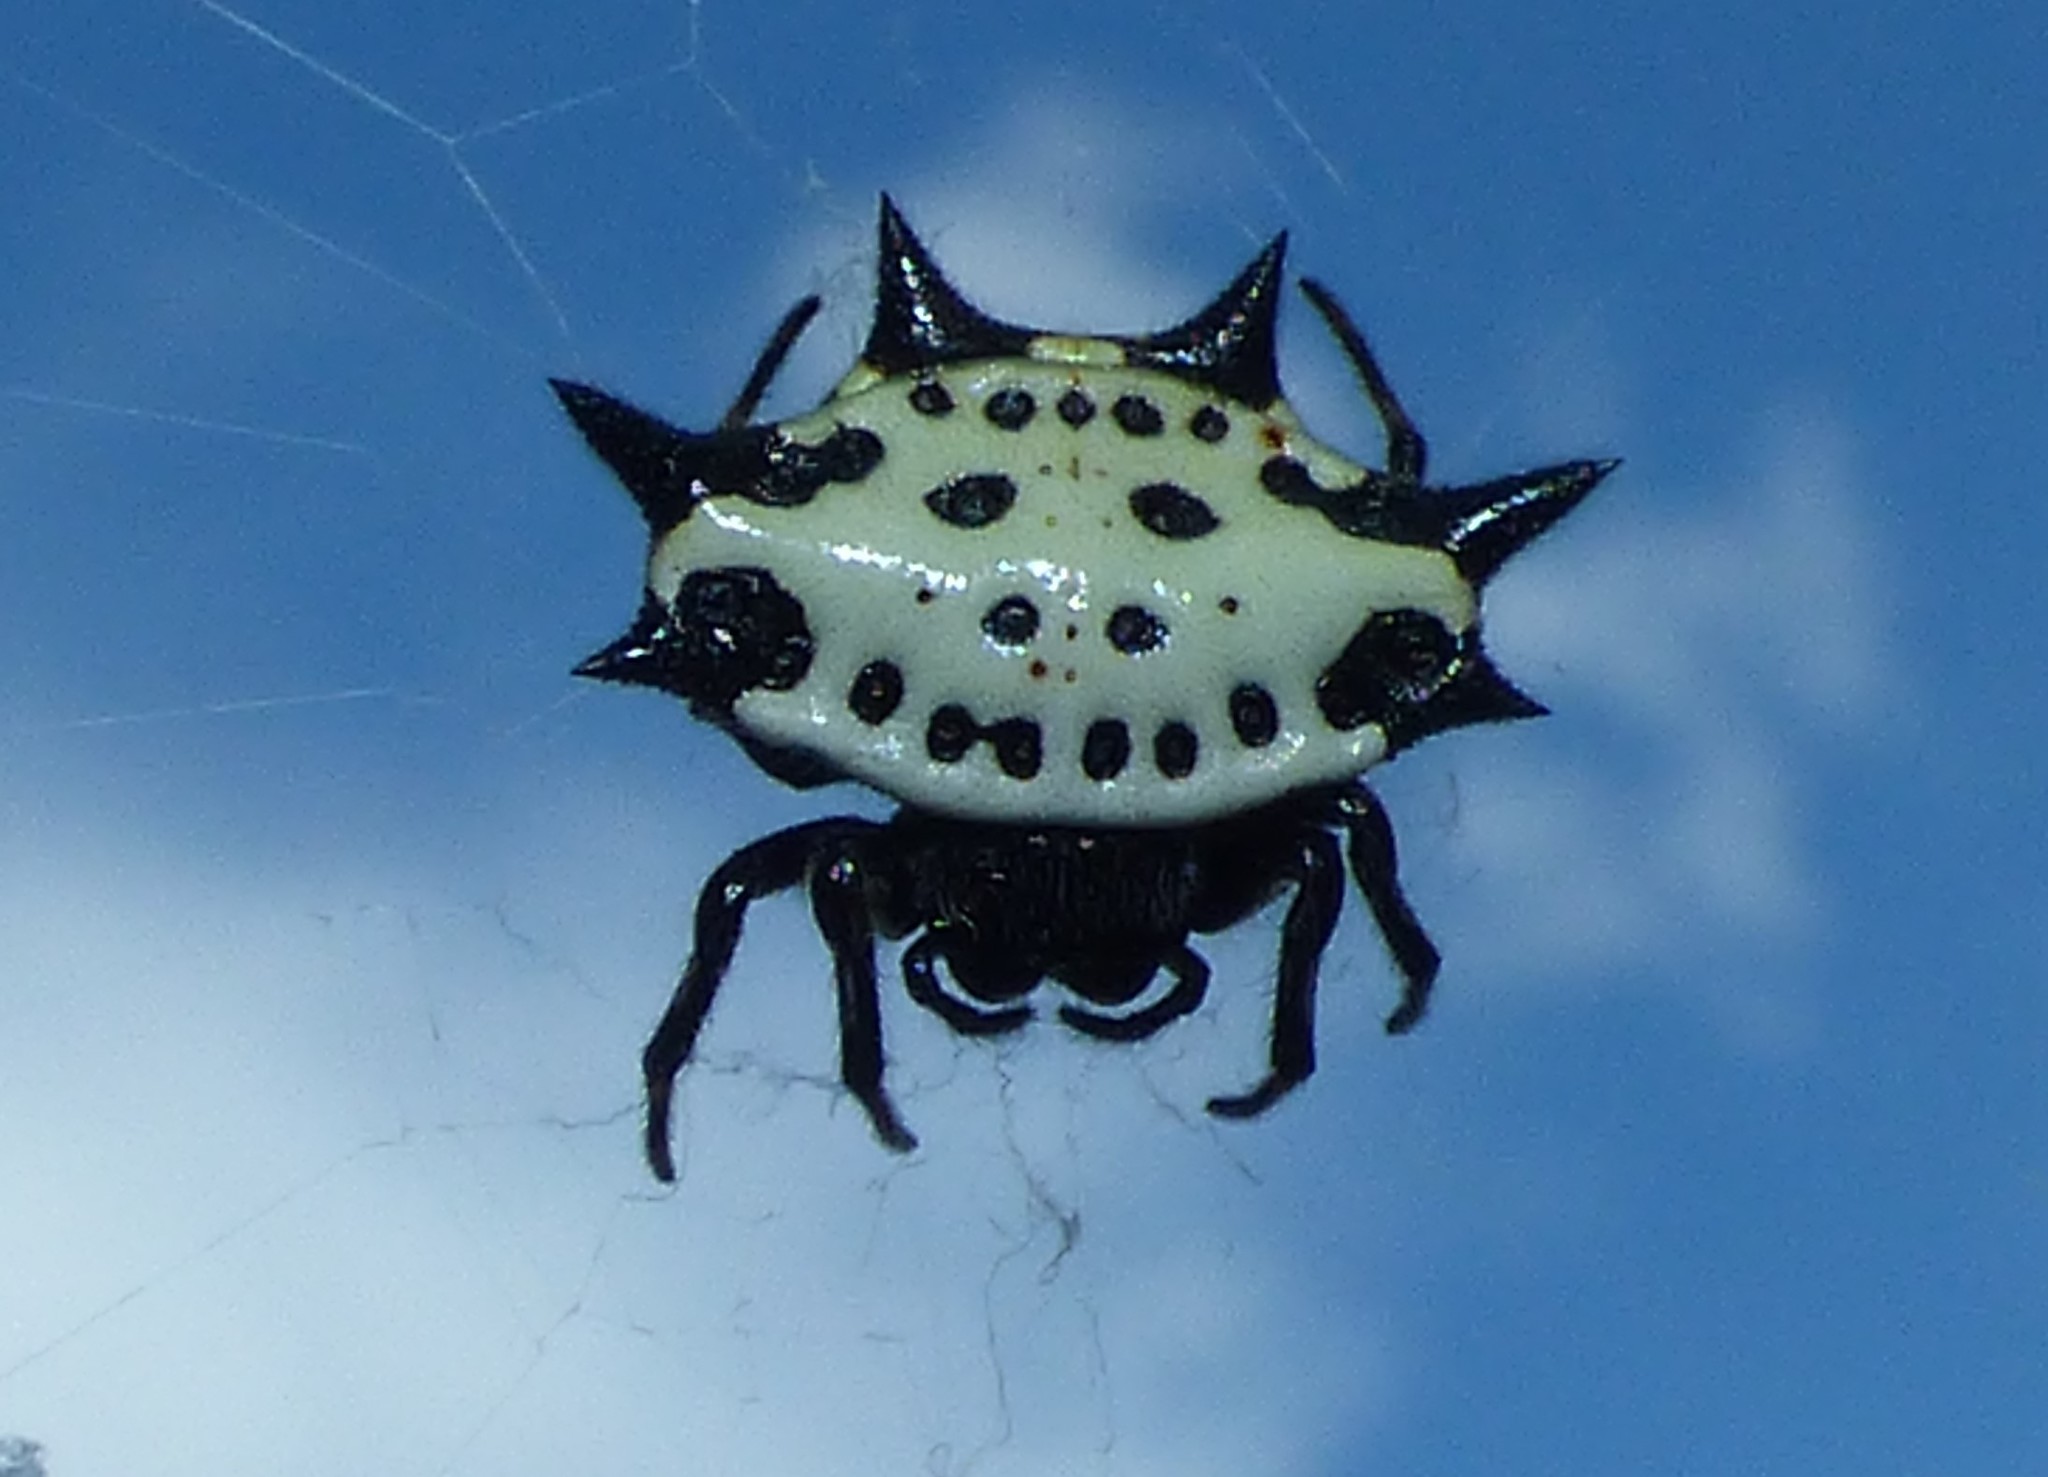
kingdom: Animalia
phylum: Arthropoda
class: Arachnida
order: Araneae
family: Araneidae
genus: Gasteracantha
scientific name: Gasteracantha cancriformis
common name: Orb weavers
